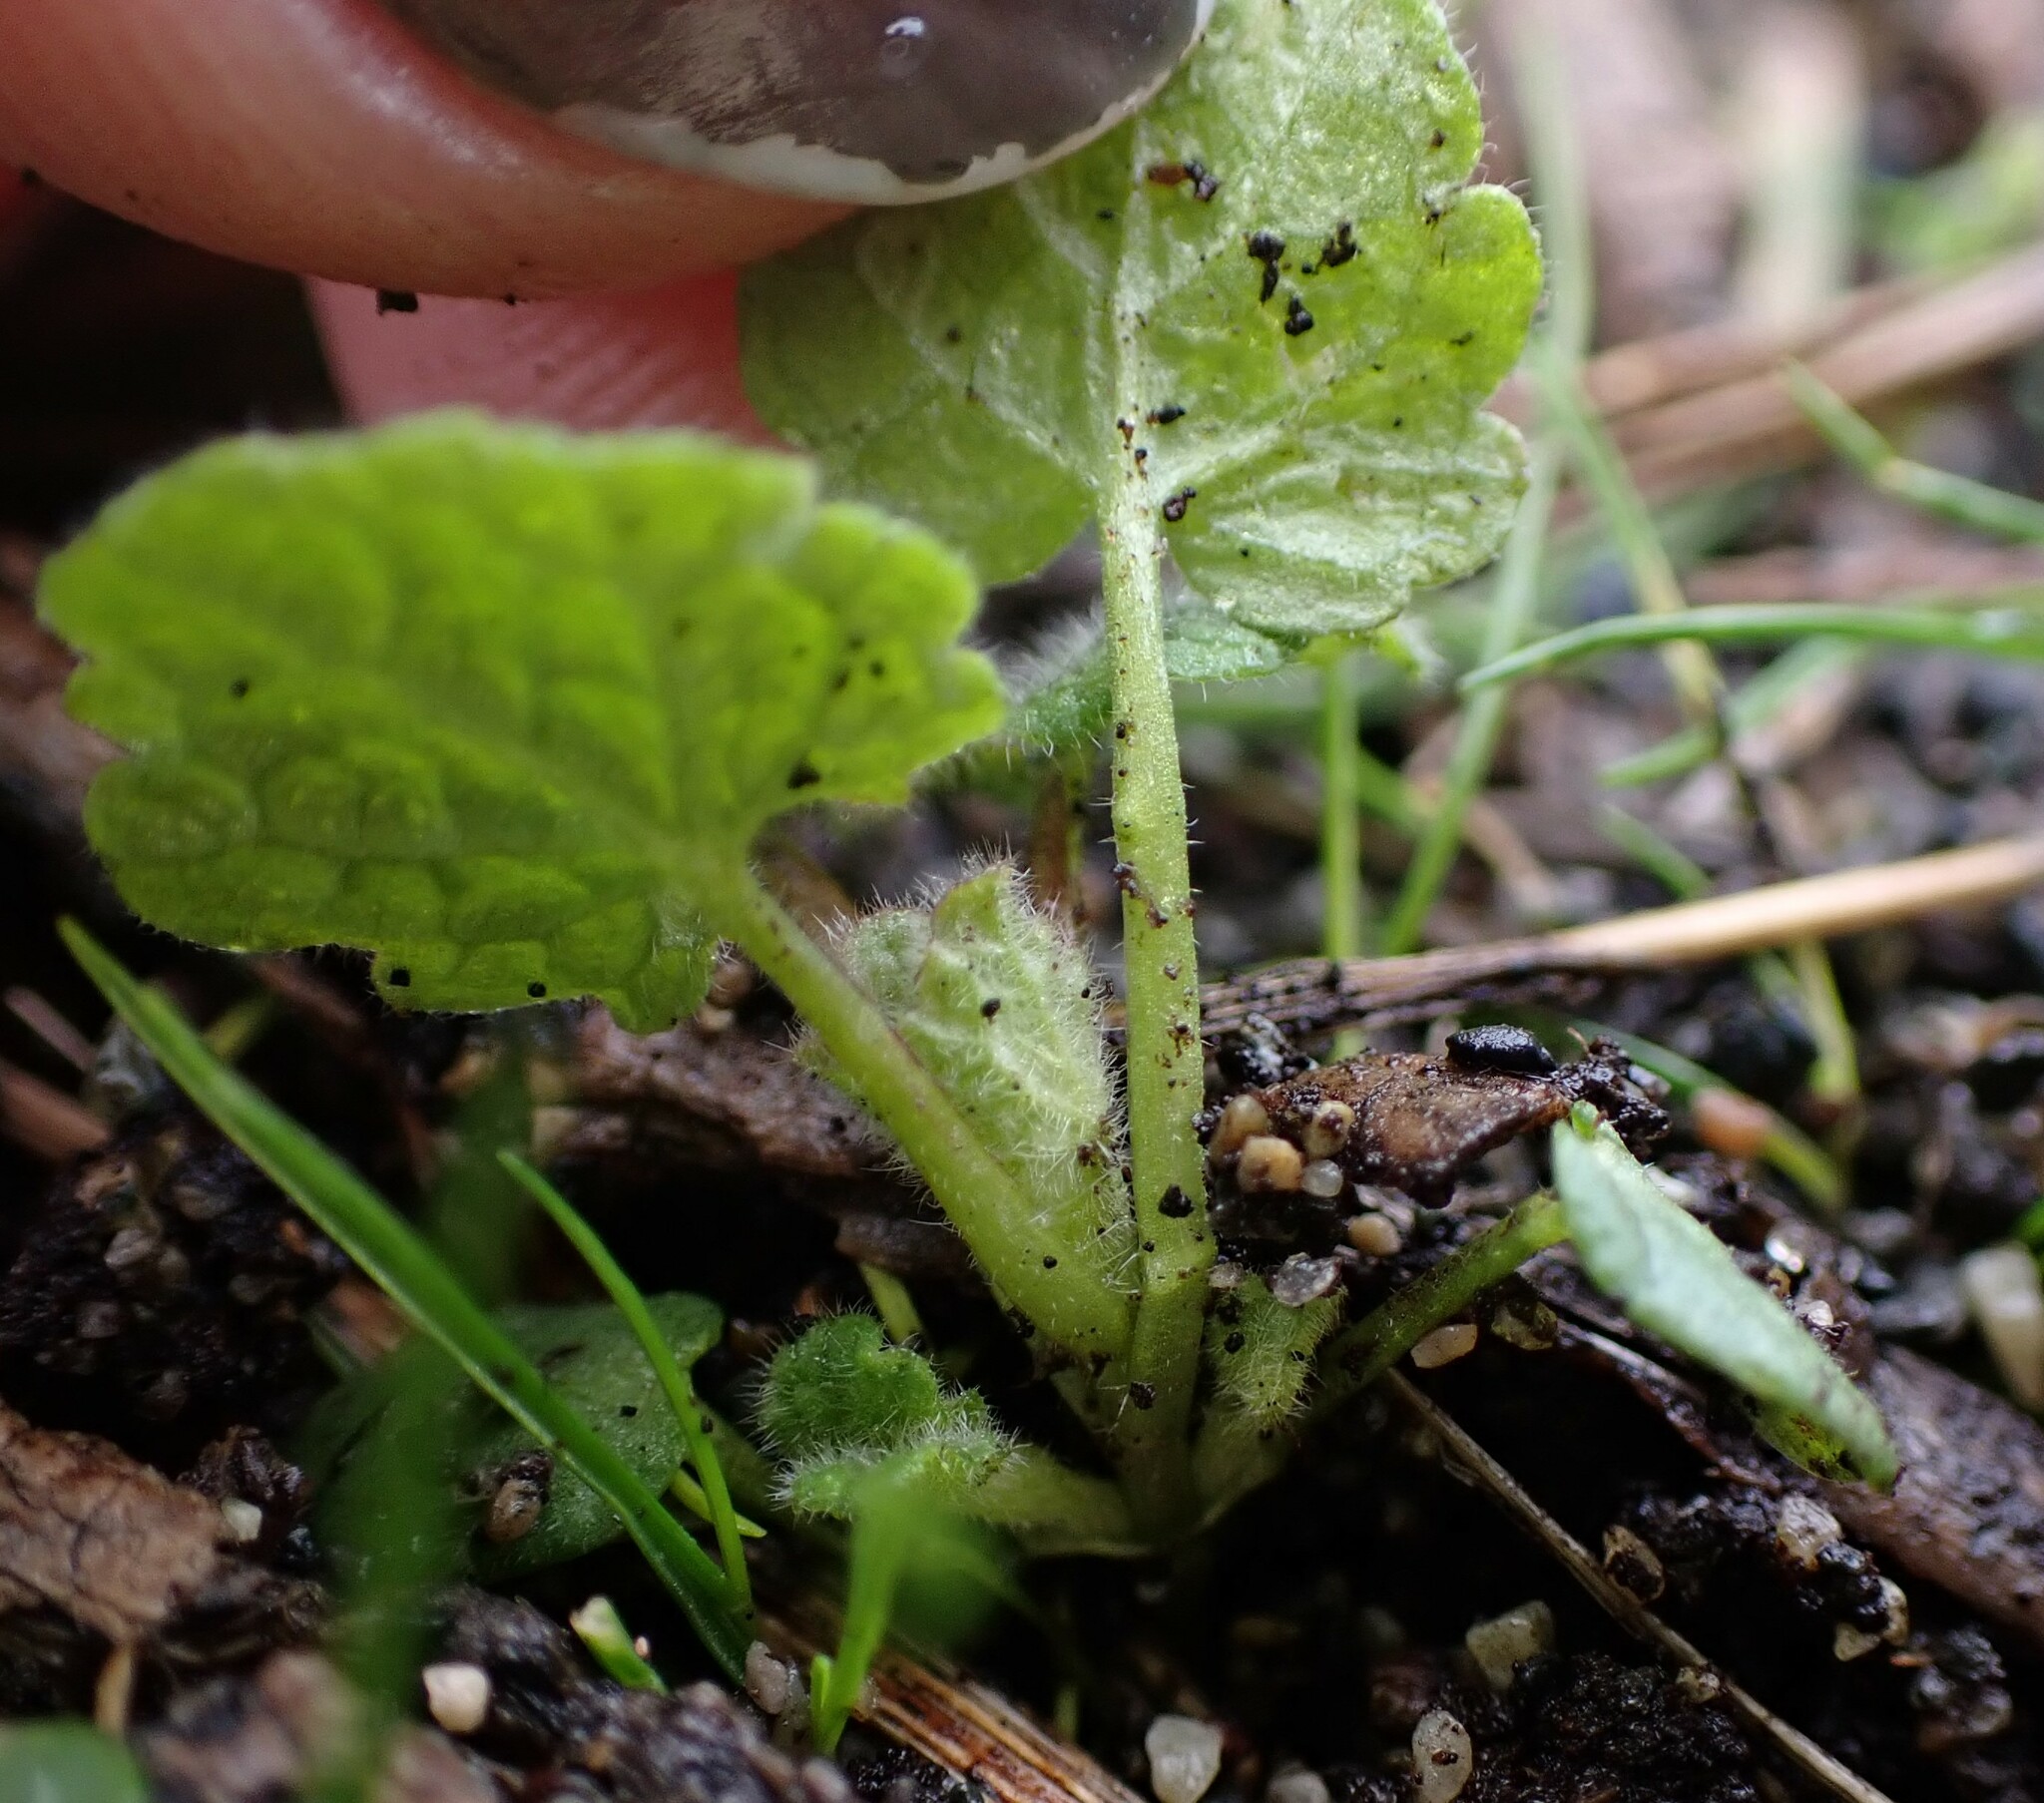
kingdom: Plantae
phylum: Tracheophyta
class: Magnoliopsida
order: Lamiales
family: Lamiaceae
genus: Lamium
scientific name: Lamium purpureum
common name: Red dead-nettle
